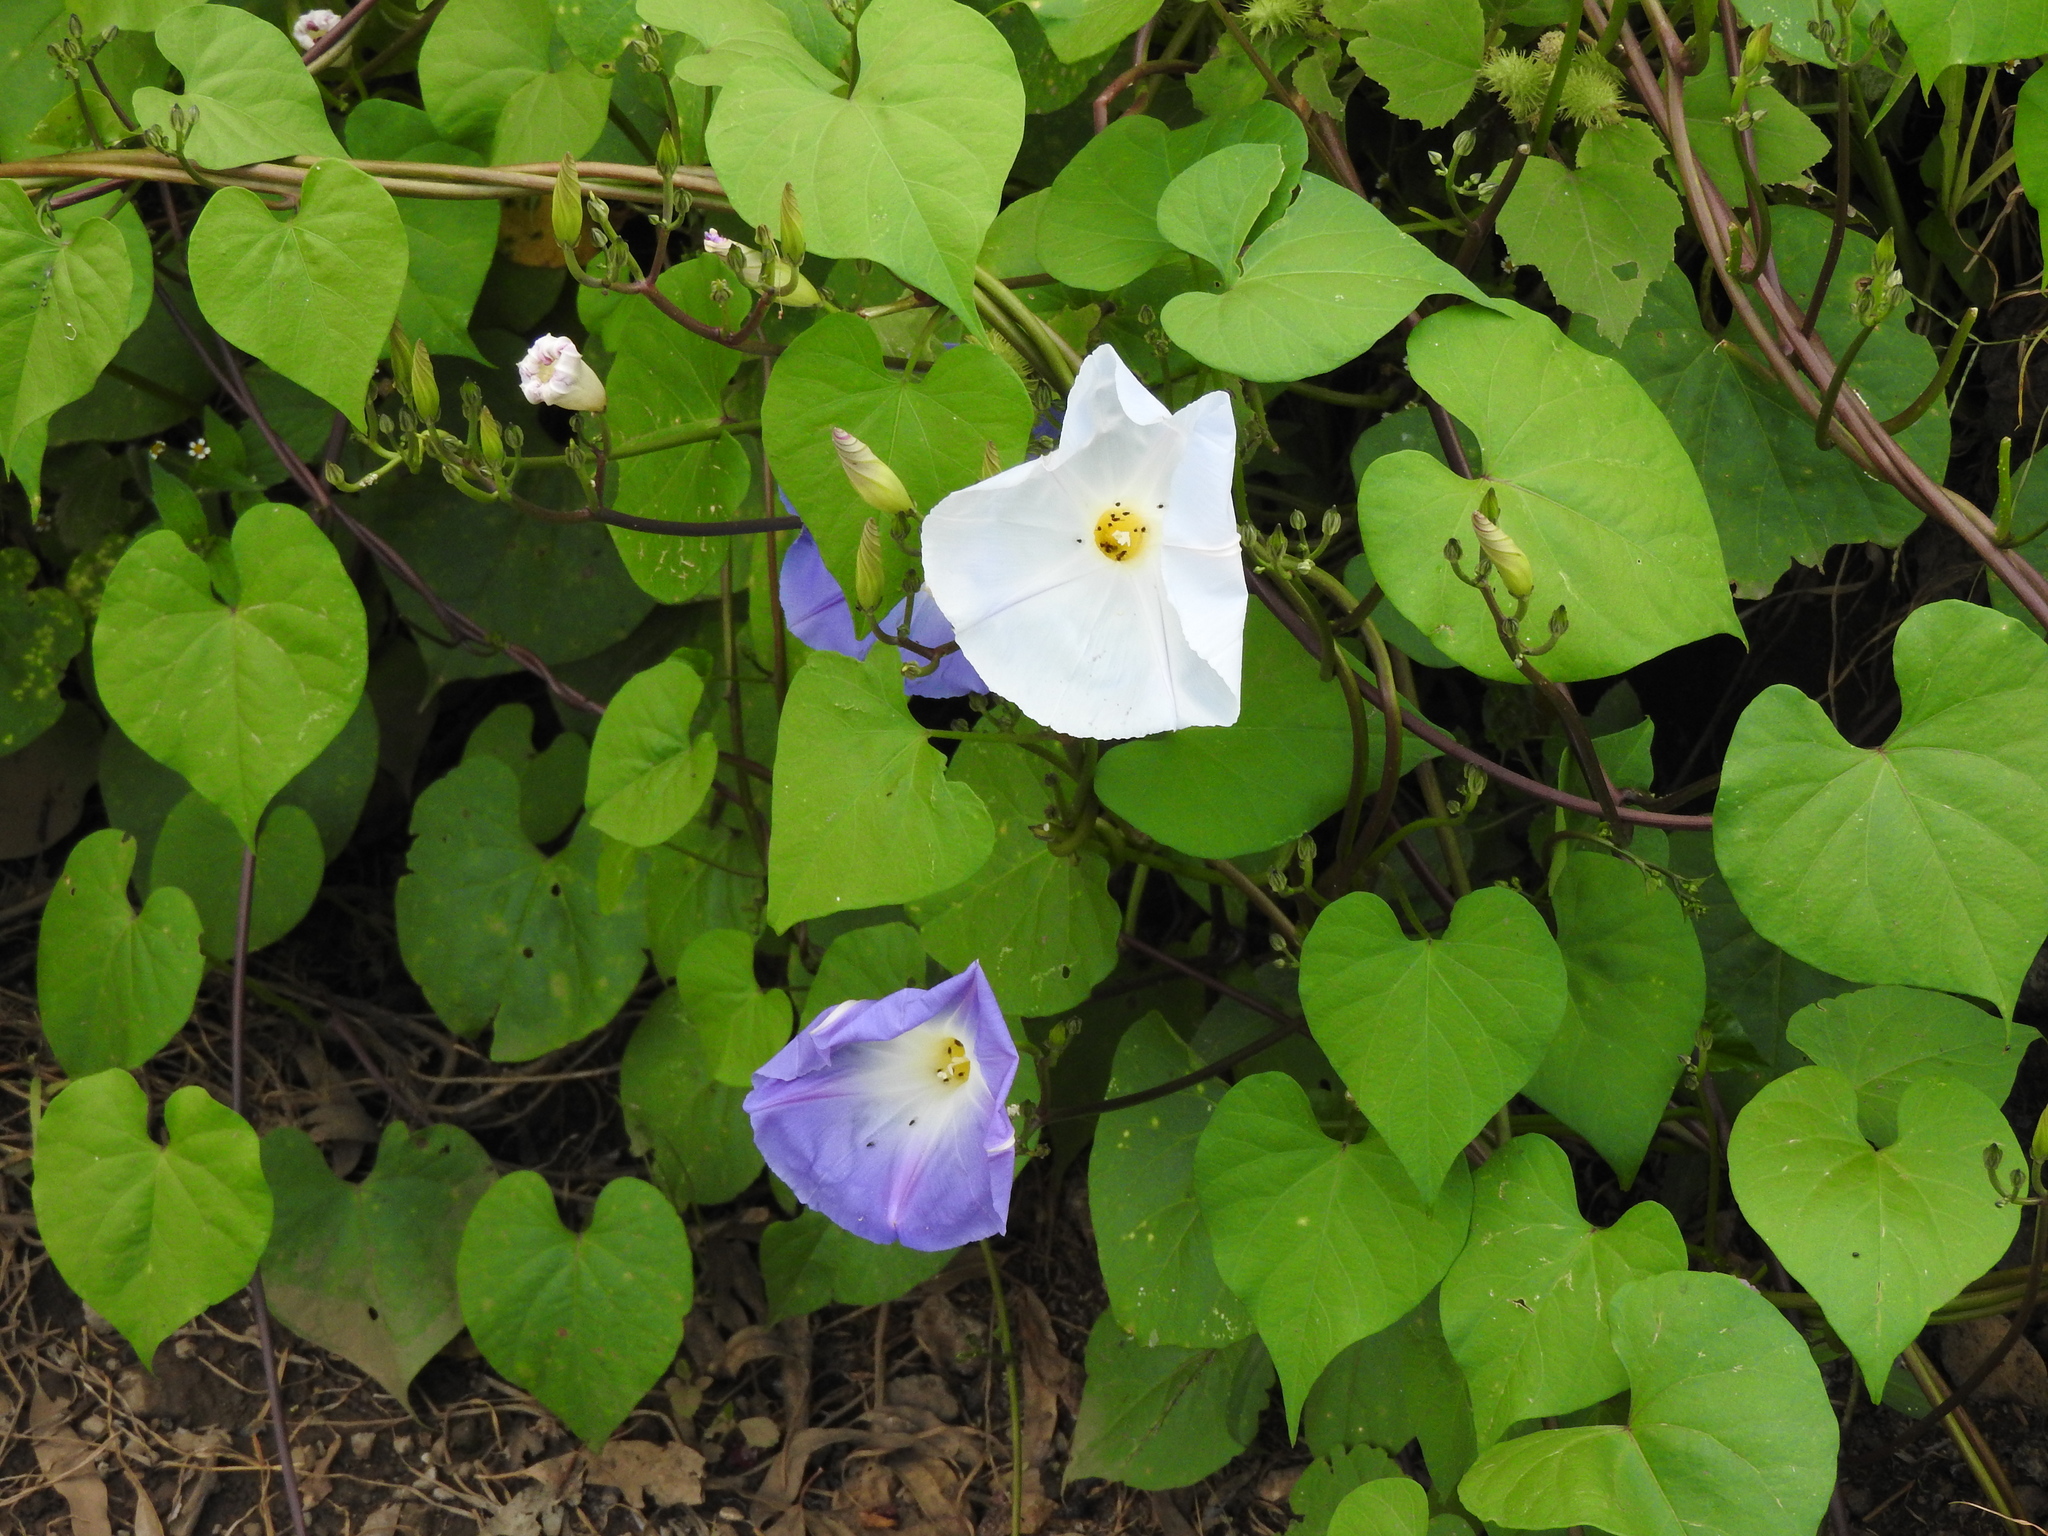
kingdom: Plantae
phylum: Tracheophyta
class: Magnoliopsida
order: Solanales
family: Convolvulaceae
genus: Ipomoea
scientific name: Ipomoea tricolor
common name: Morning-glory
